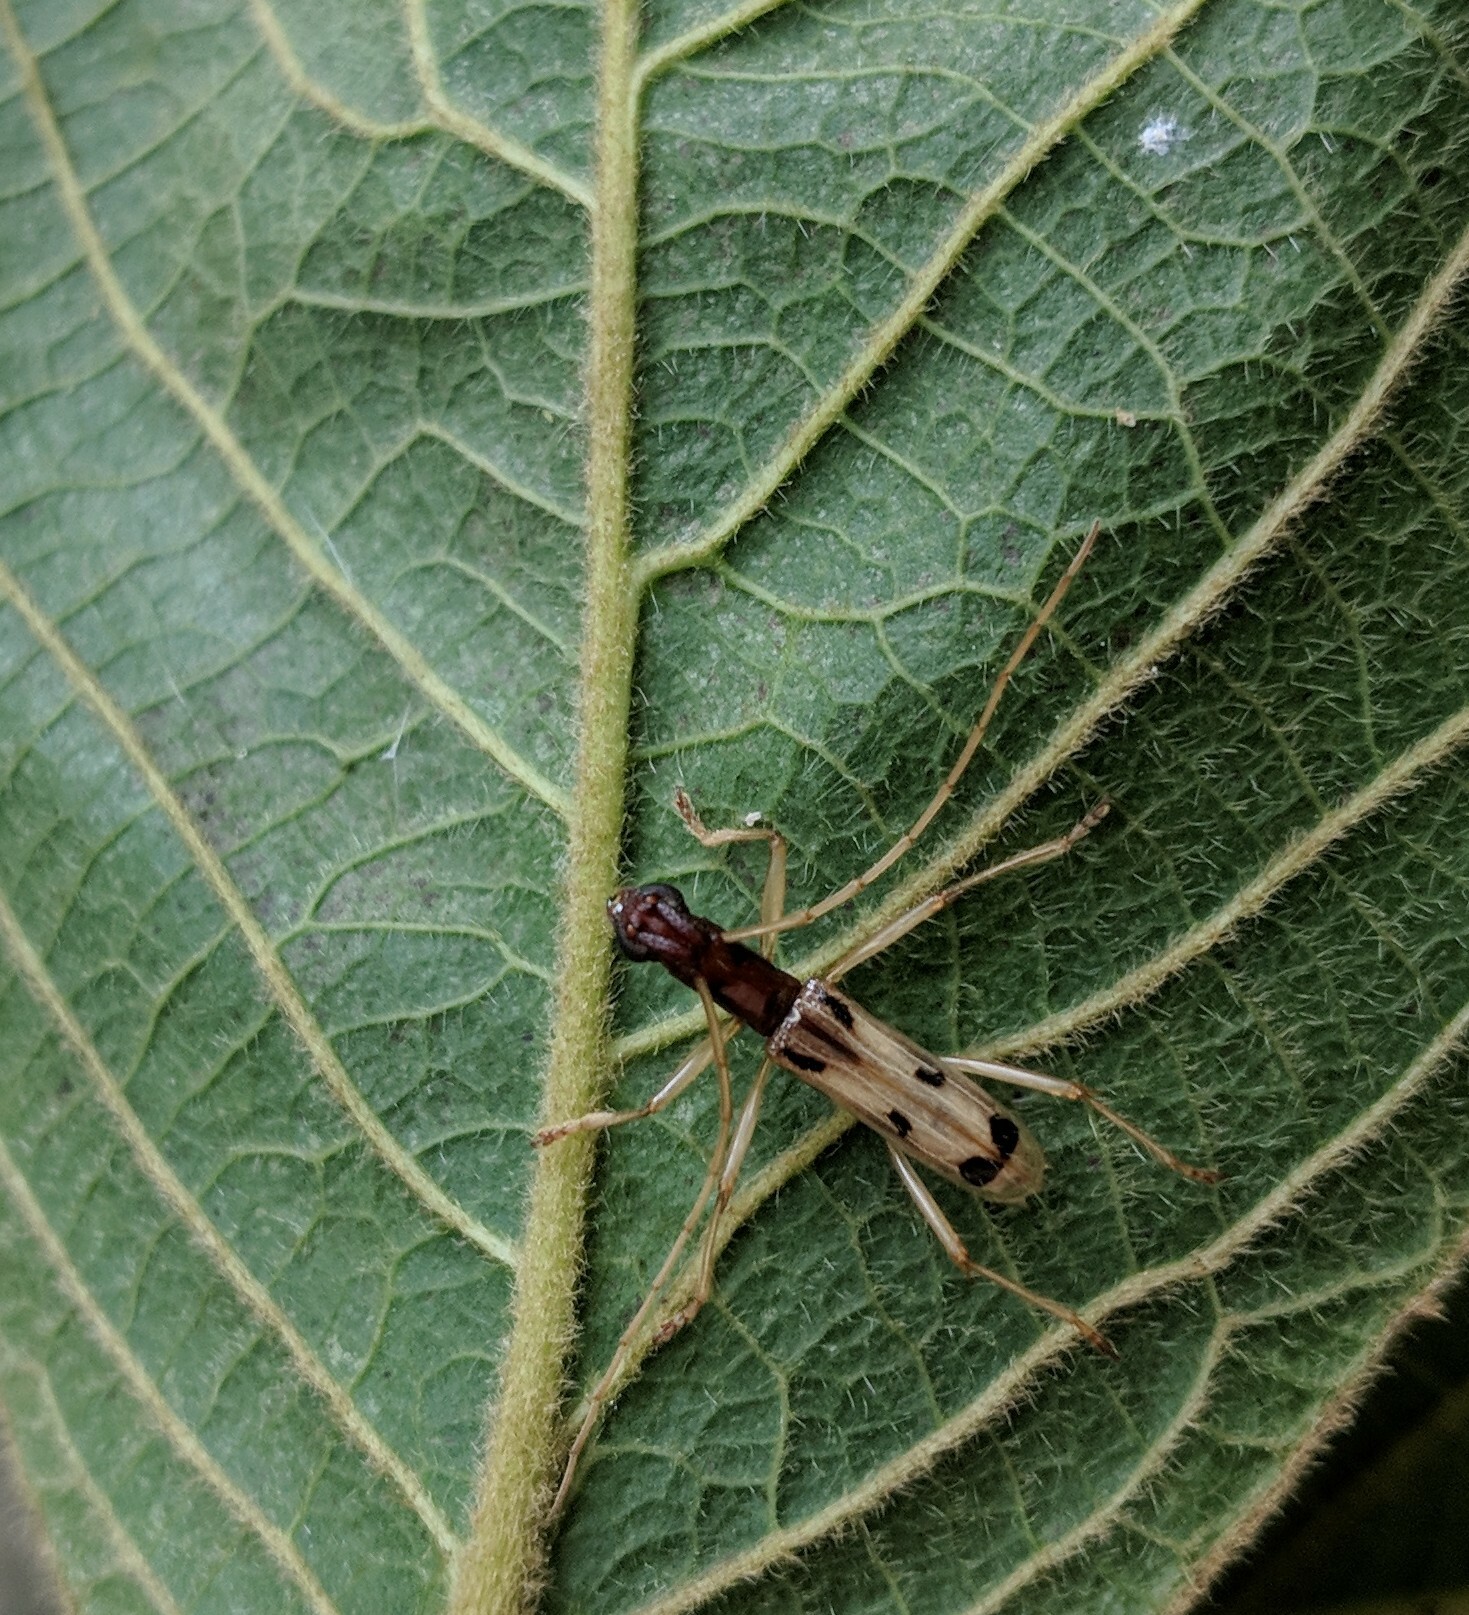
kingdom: Animalia
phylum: Arthropoda
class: Insecta
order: Coleoptera
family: Cerambycidae
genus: Hexoplon
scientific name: Hexoplon albipenne
